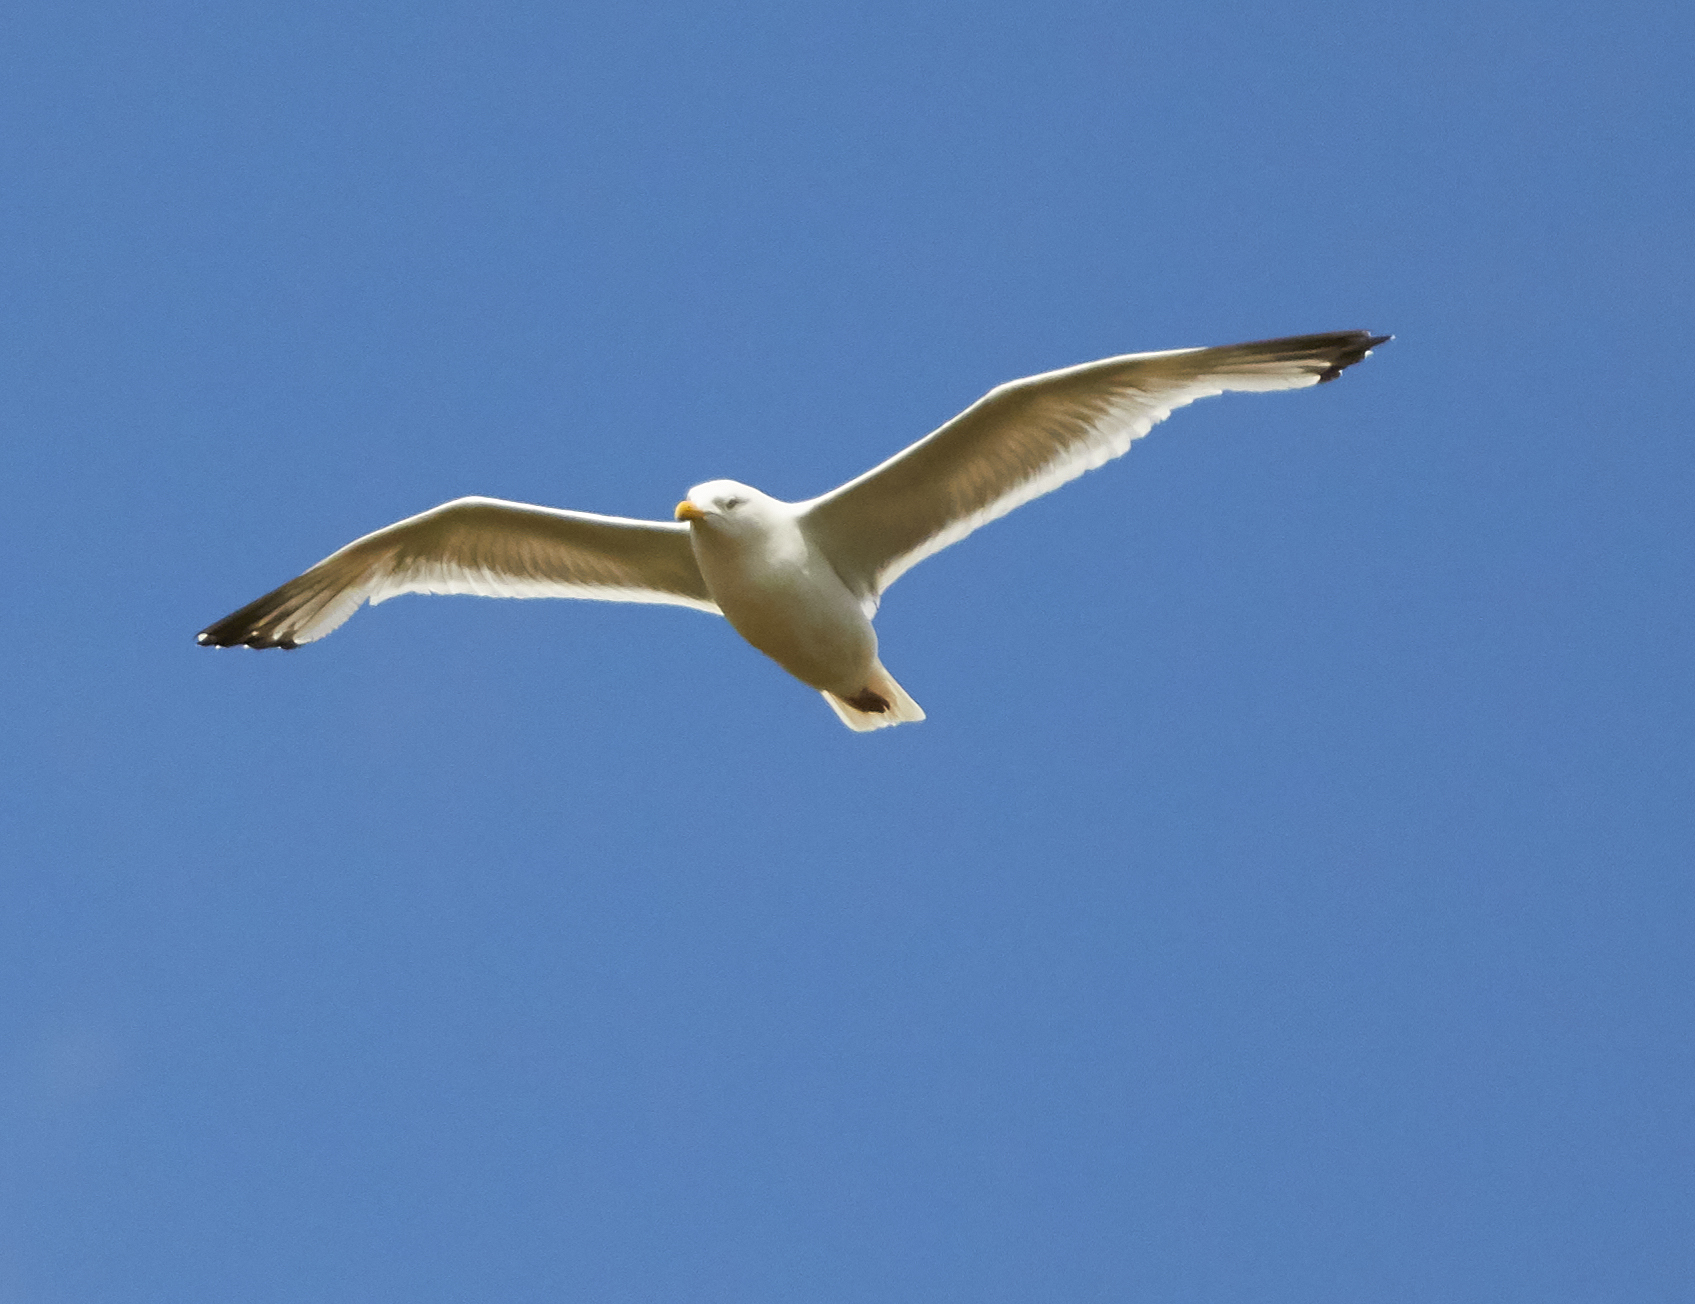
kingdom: Animalia
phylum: Chordata
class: Aves
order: Charadriiformes
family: Laridae
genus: Larus
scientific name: Larus argentatus
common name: Herring gull
